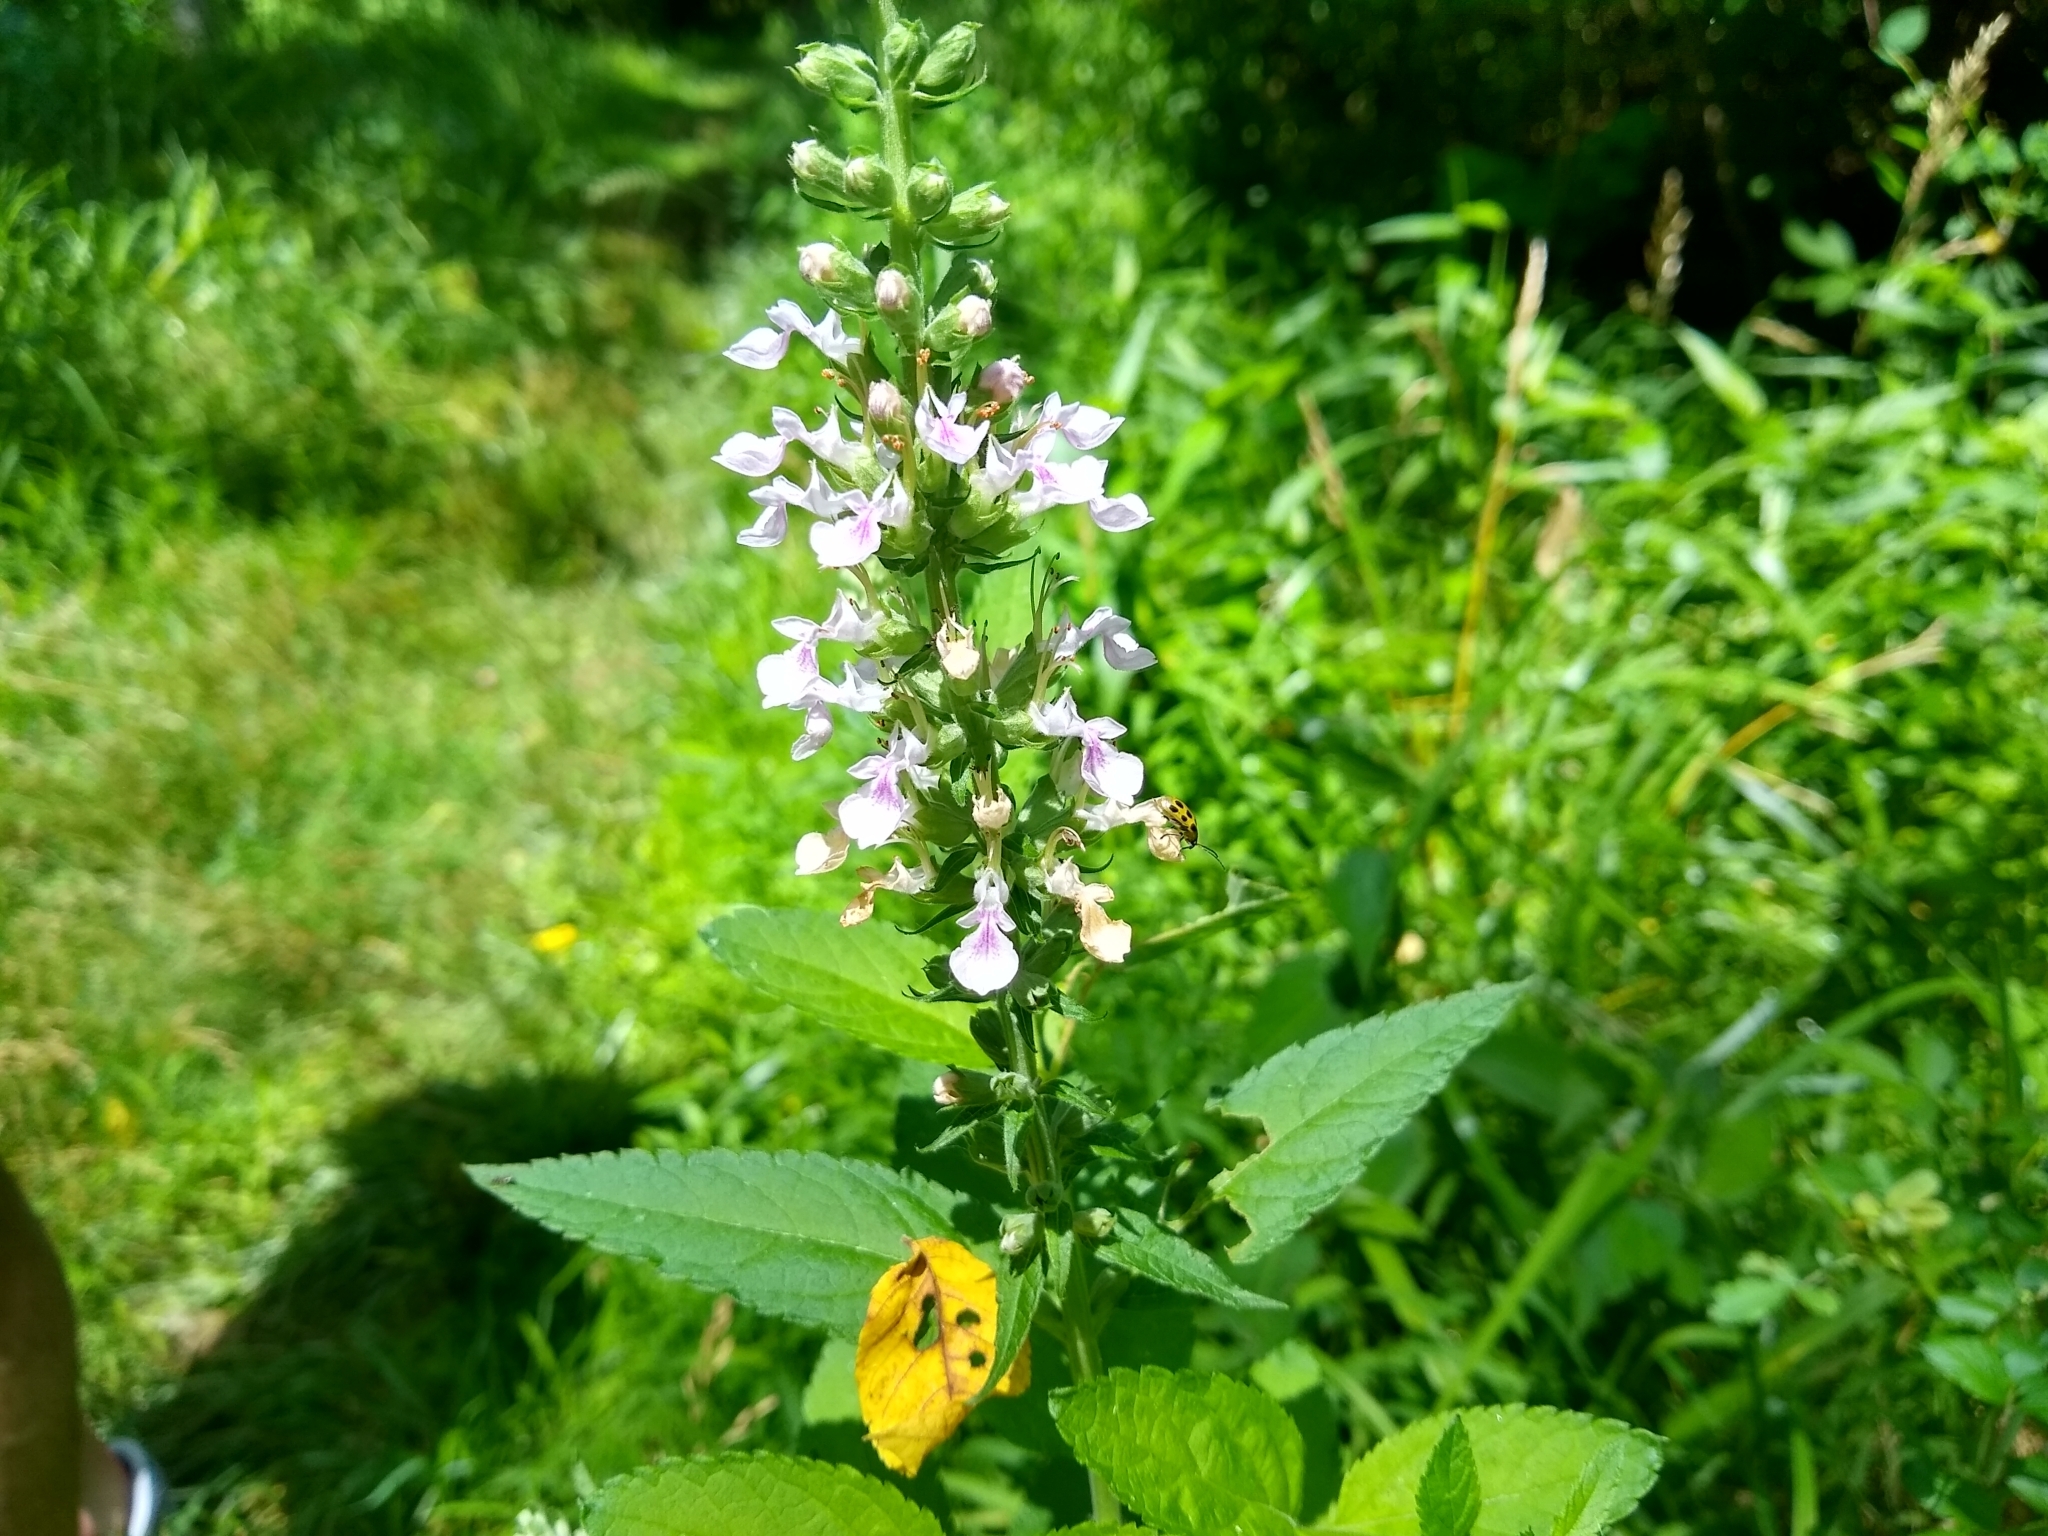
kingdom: Plantae
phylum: Tracheophyta
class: Magnoliopsida
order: Lamiales
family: Lamiaceae
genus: Teucrium
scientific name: Teucrium canadense
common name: American germander
